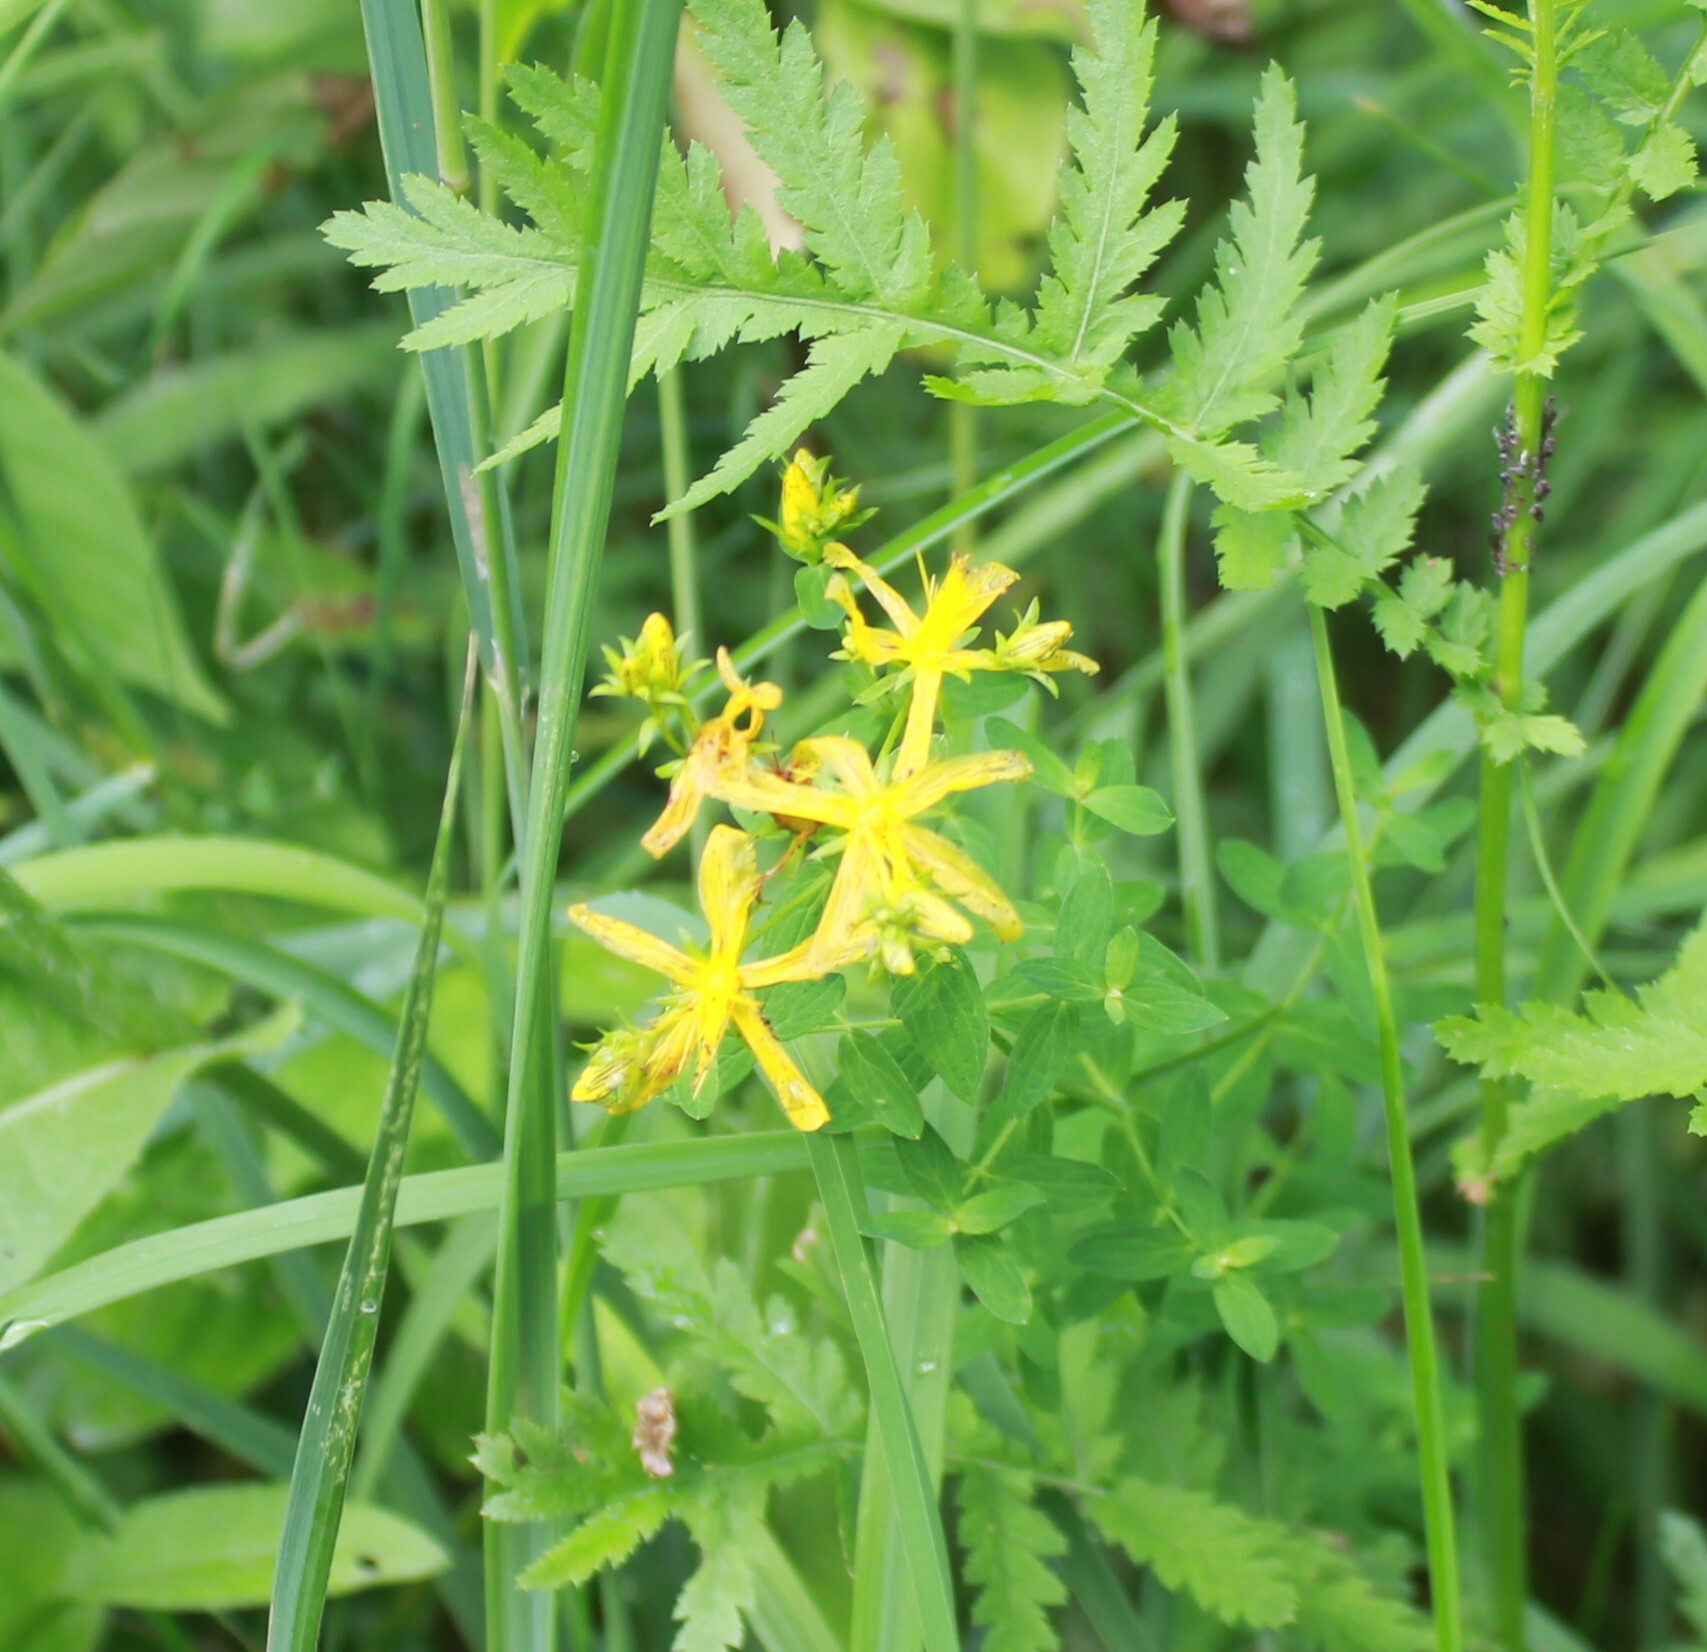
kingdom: Plantae
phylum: Tracheophyta
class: Magnoliopsida
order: Malpighiales
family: Hypericaceae
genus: Hypericum
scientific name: Hypericum perforatum
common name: Common st. johnswort
